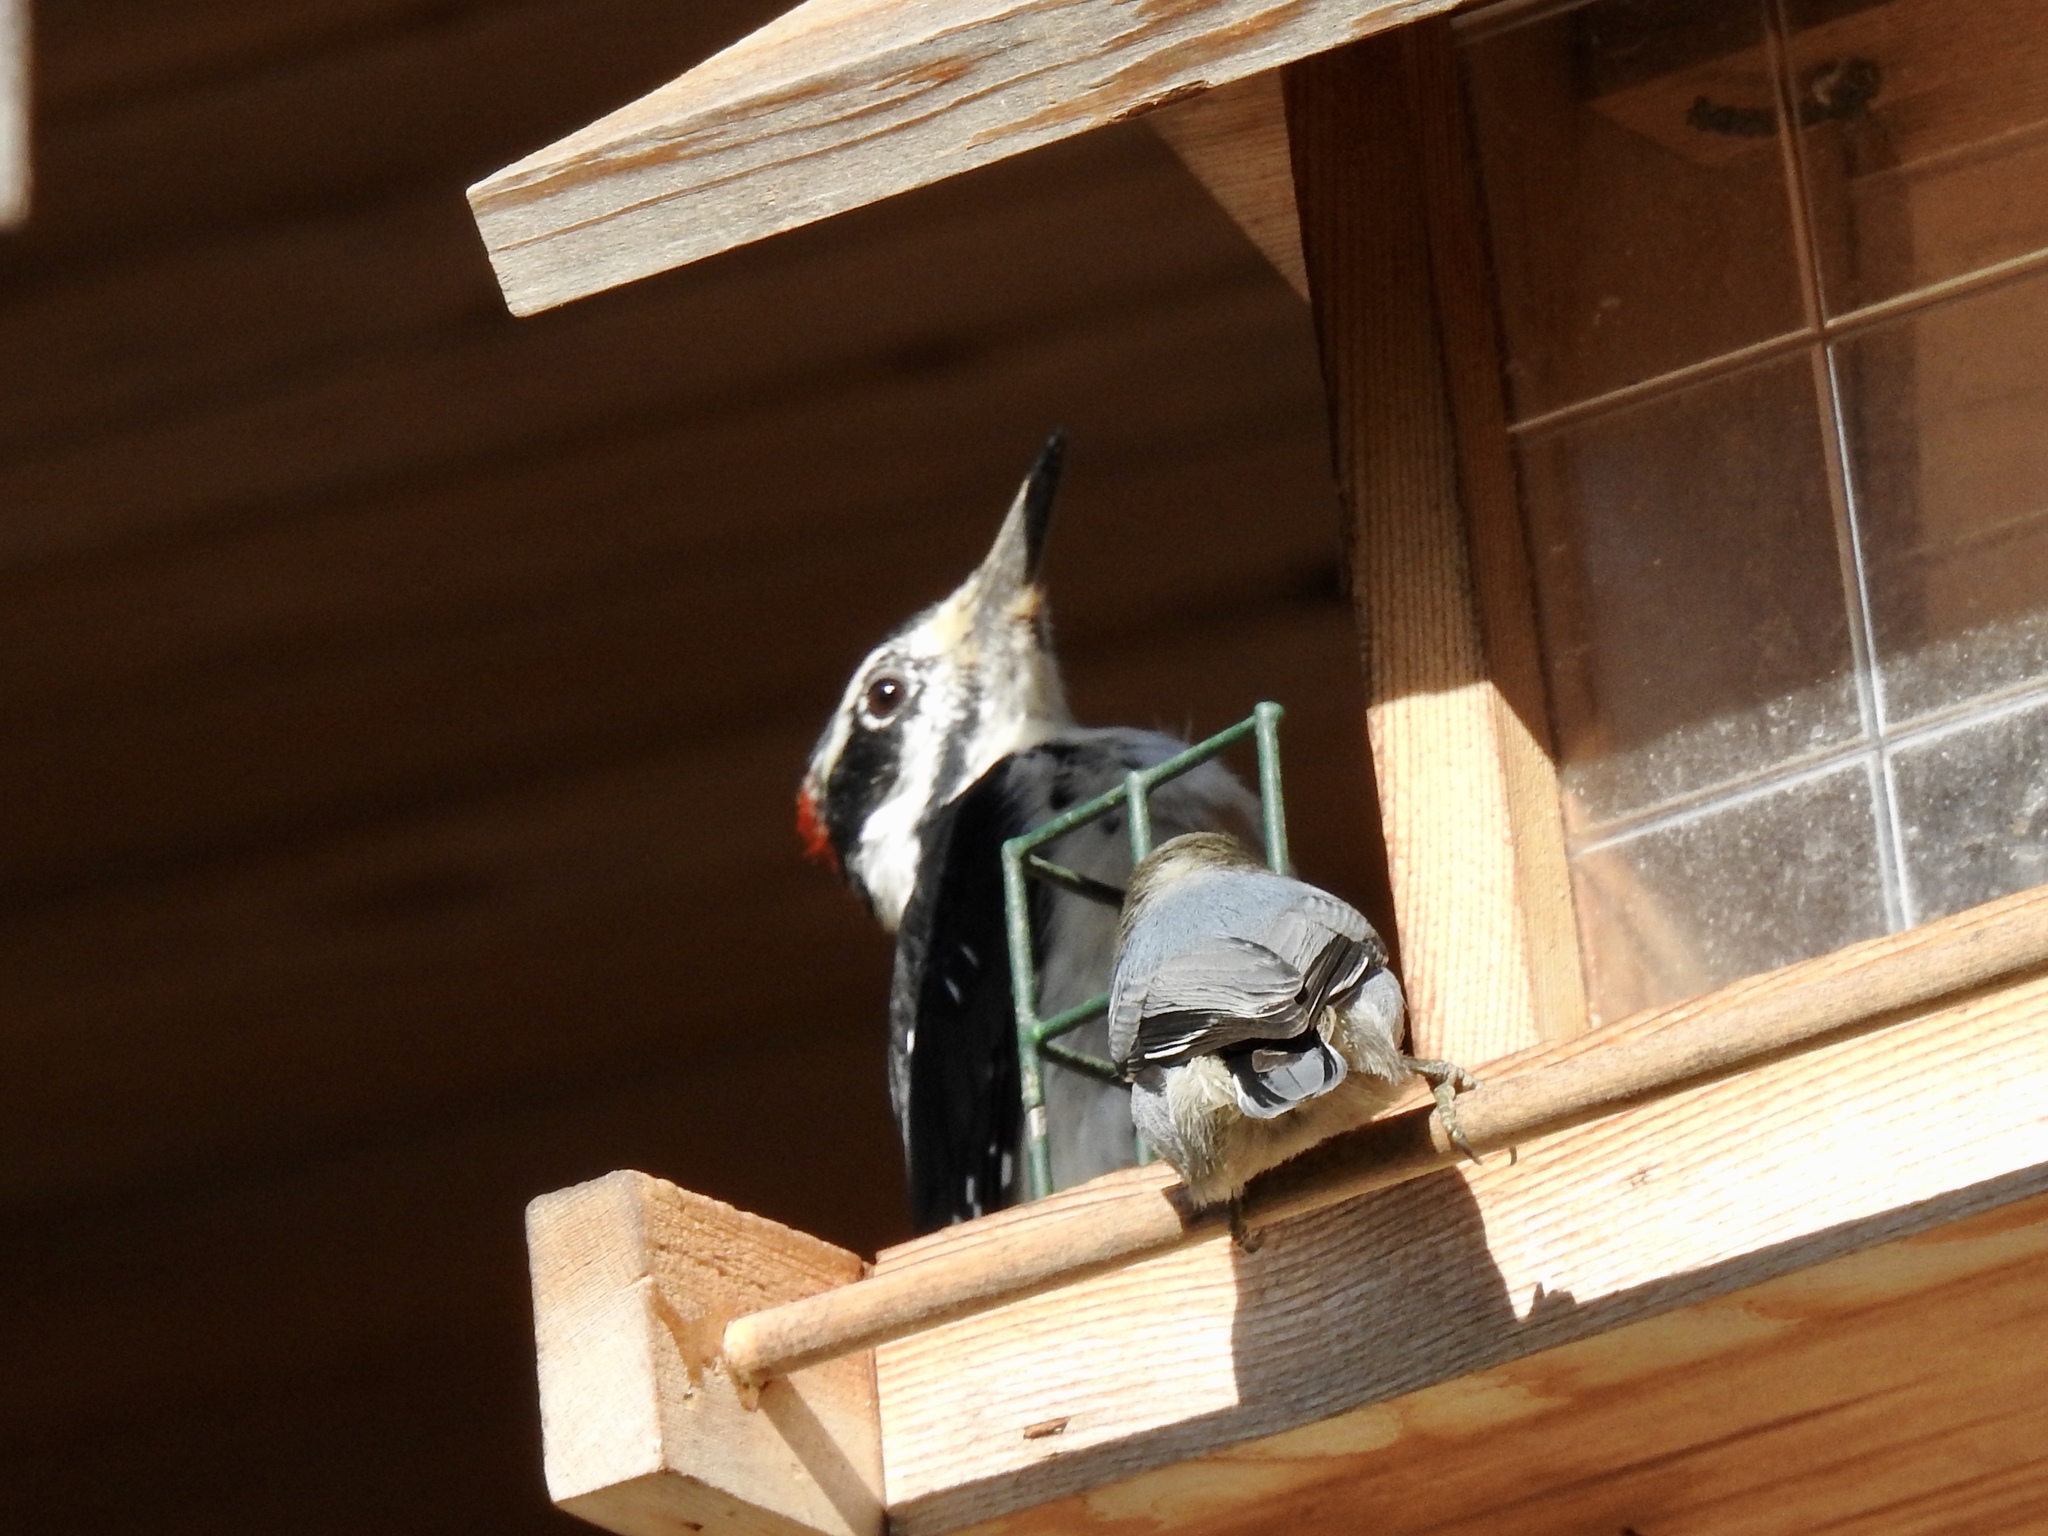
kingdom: Animalia
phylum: Chordata
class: Aves
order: Piciformes
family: Picidae
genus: Leuconotopicus
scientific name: Leuconotopicus villosus
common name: Hairy woodpecker
